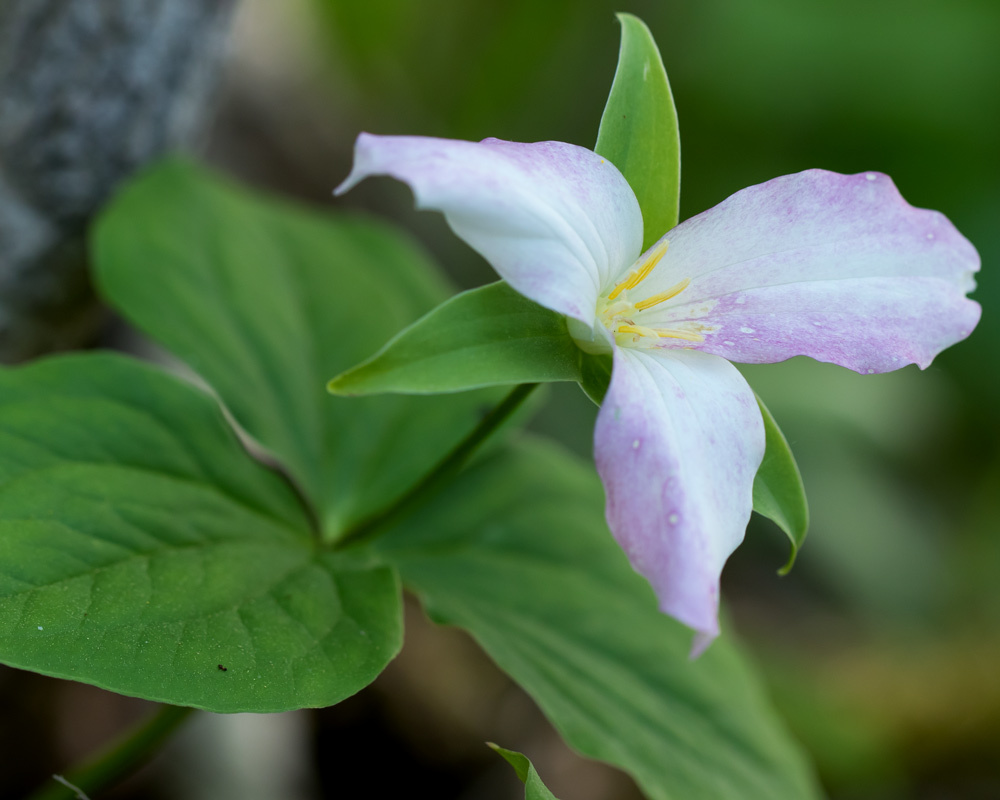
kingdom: Plantae
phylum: Tracheophyta
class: Liliopsida
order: Liliales
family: Melanthiaceae
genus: Trillium
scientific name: Trillium grandiflorum
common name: Great white trillium
